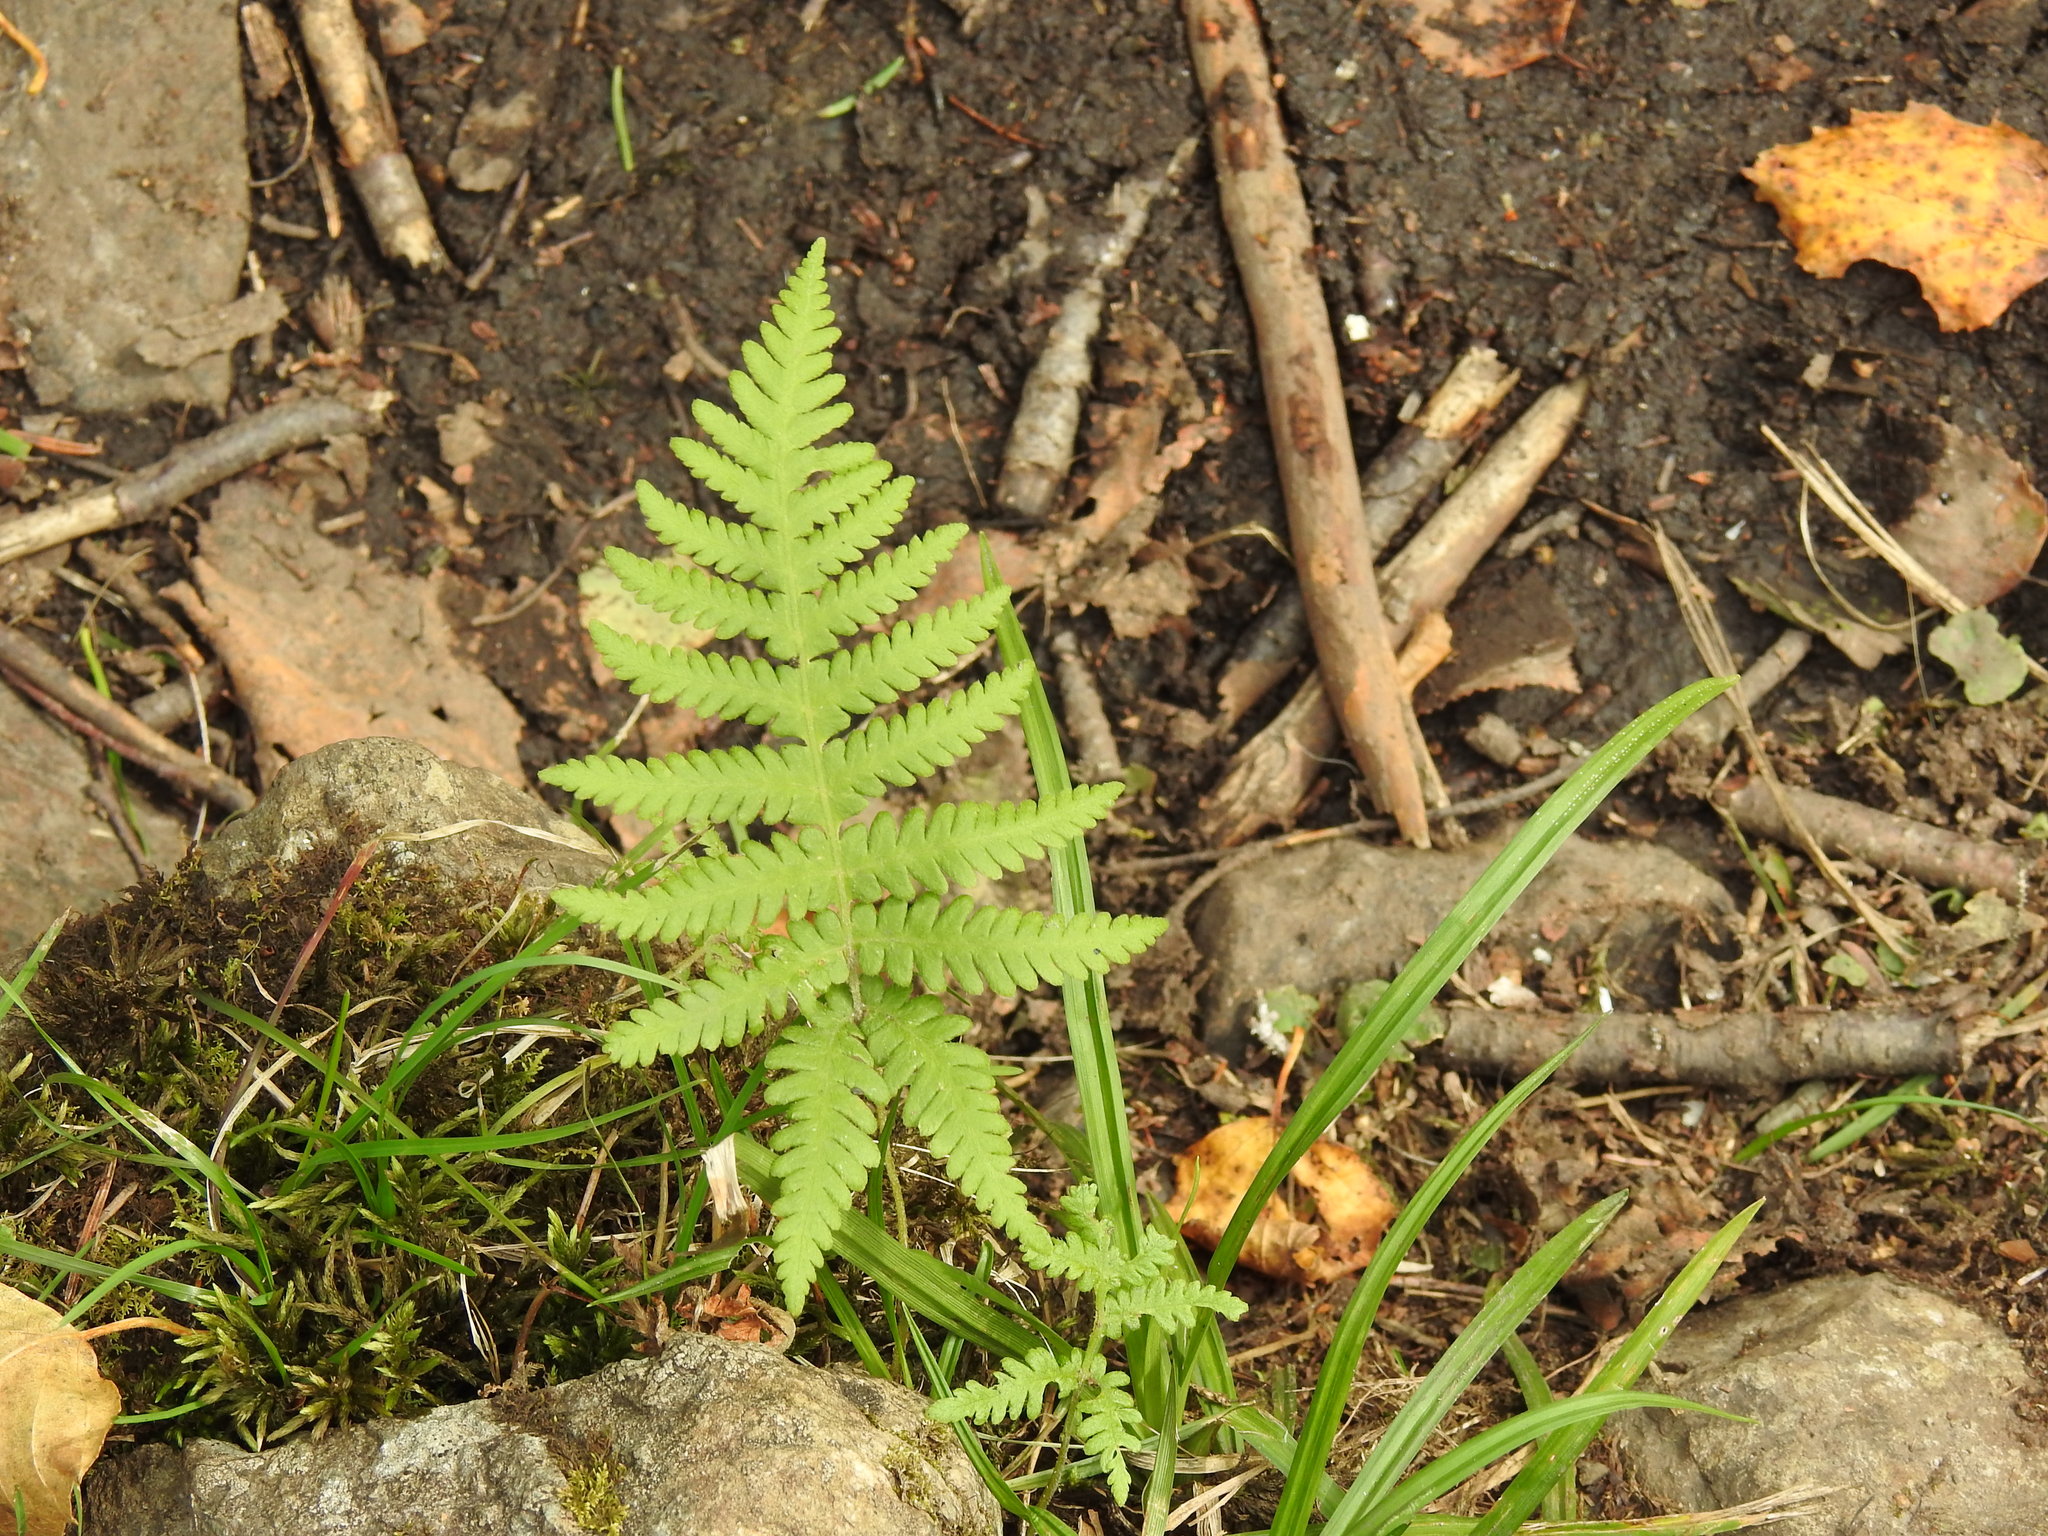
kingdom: Plantae
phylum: Tracheophyta
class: Polypodiopsida
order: Polypodiales
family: Thelypteridaceae
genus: Phegopteris
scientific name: Phegopteris connectilis
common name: Beech fern
